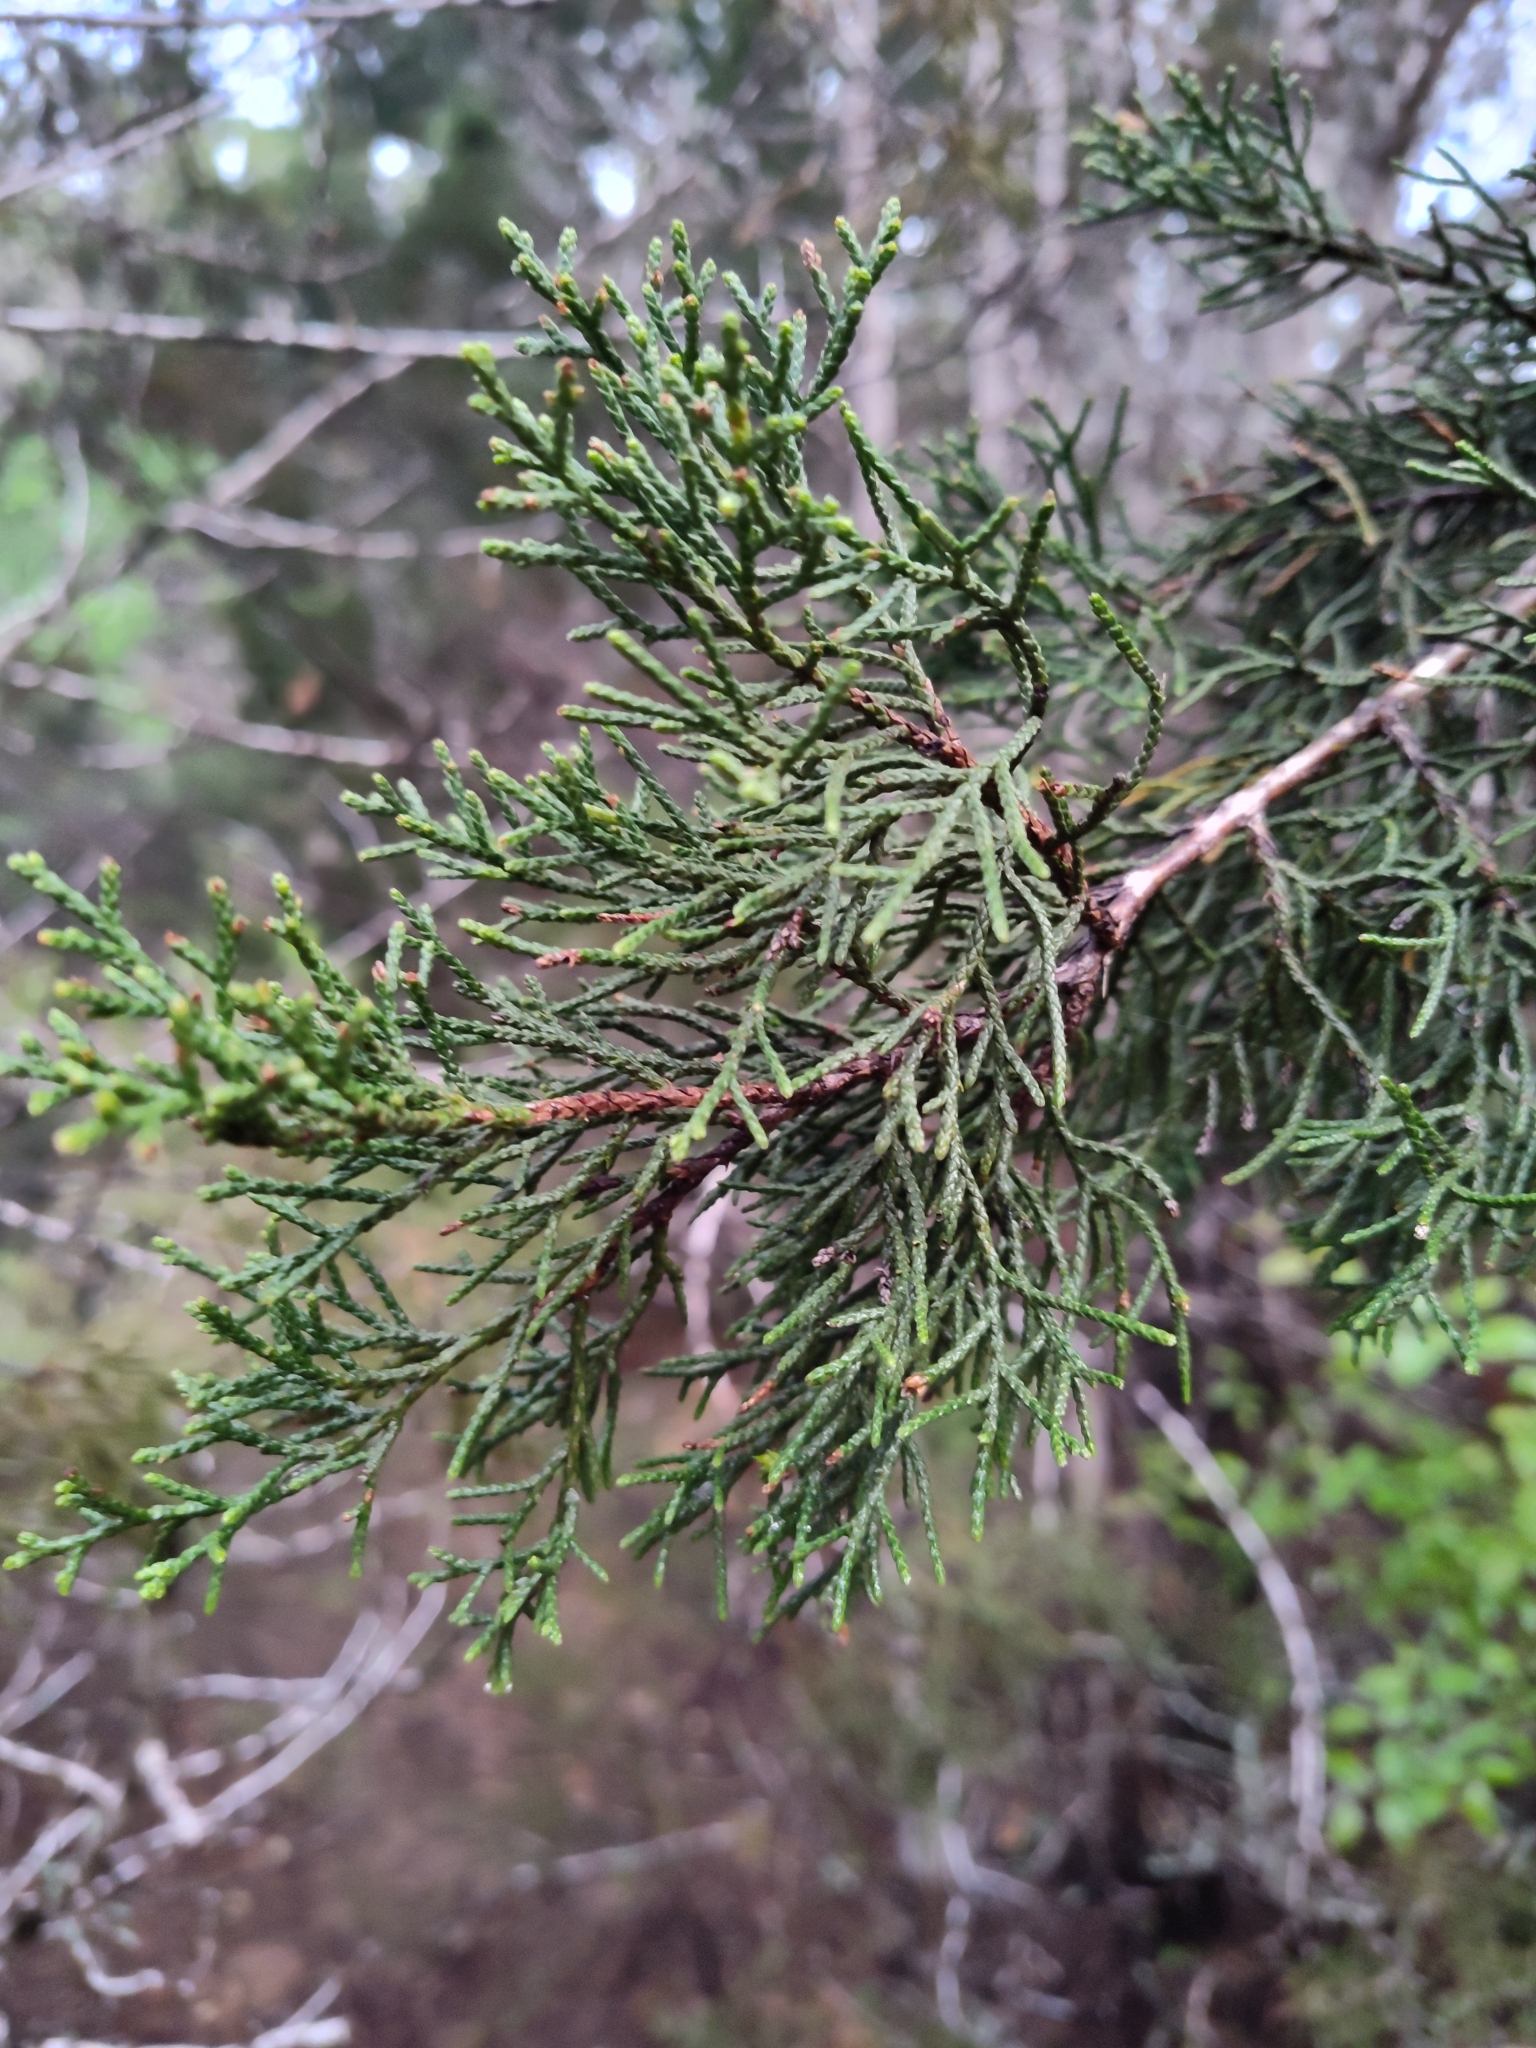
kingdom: Plantae
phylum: Tracheophyta
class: Pinopsida
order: Pinales
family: Cupressaceae
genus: Juniperus
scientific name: Juniperus ashei
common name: Mexican juniper
